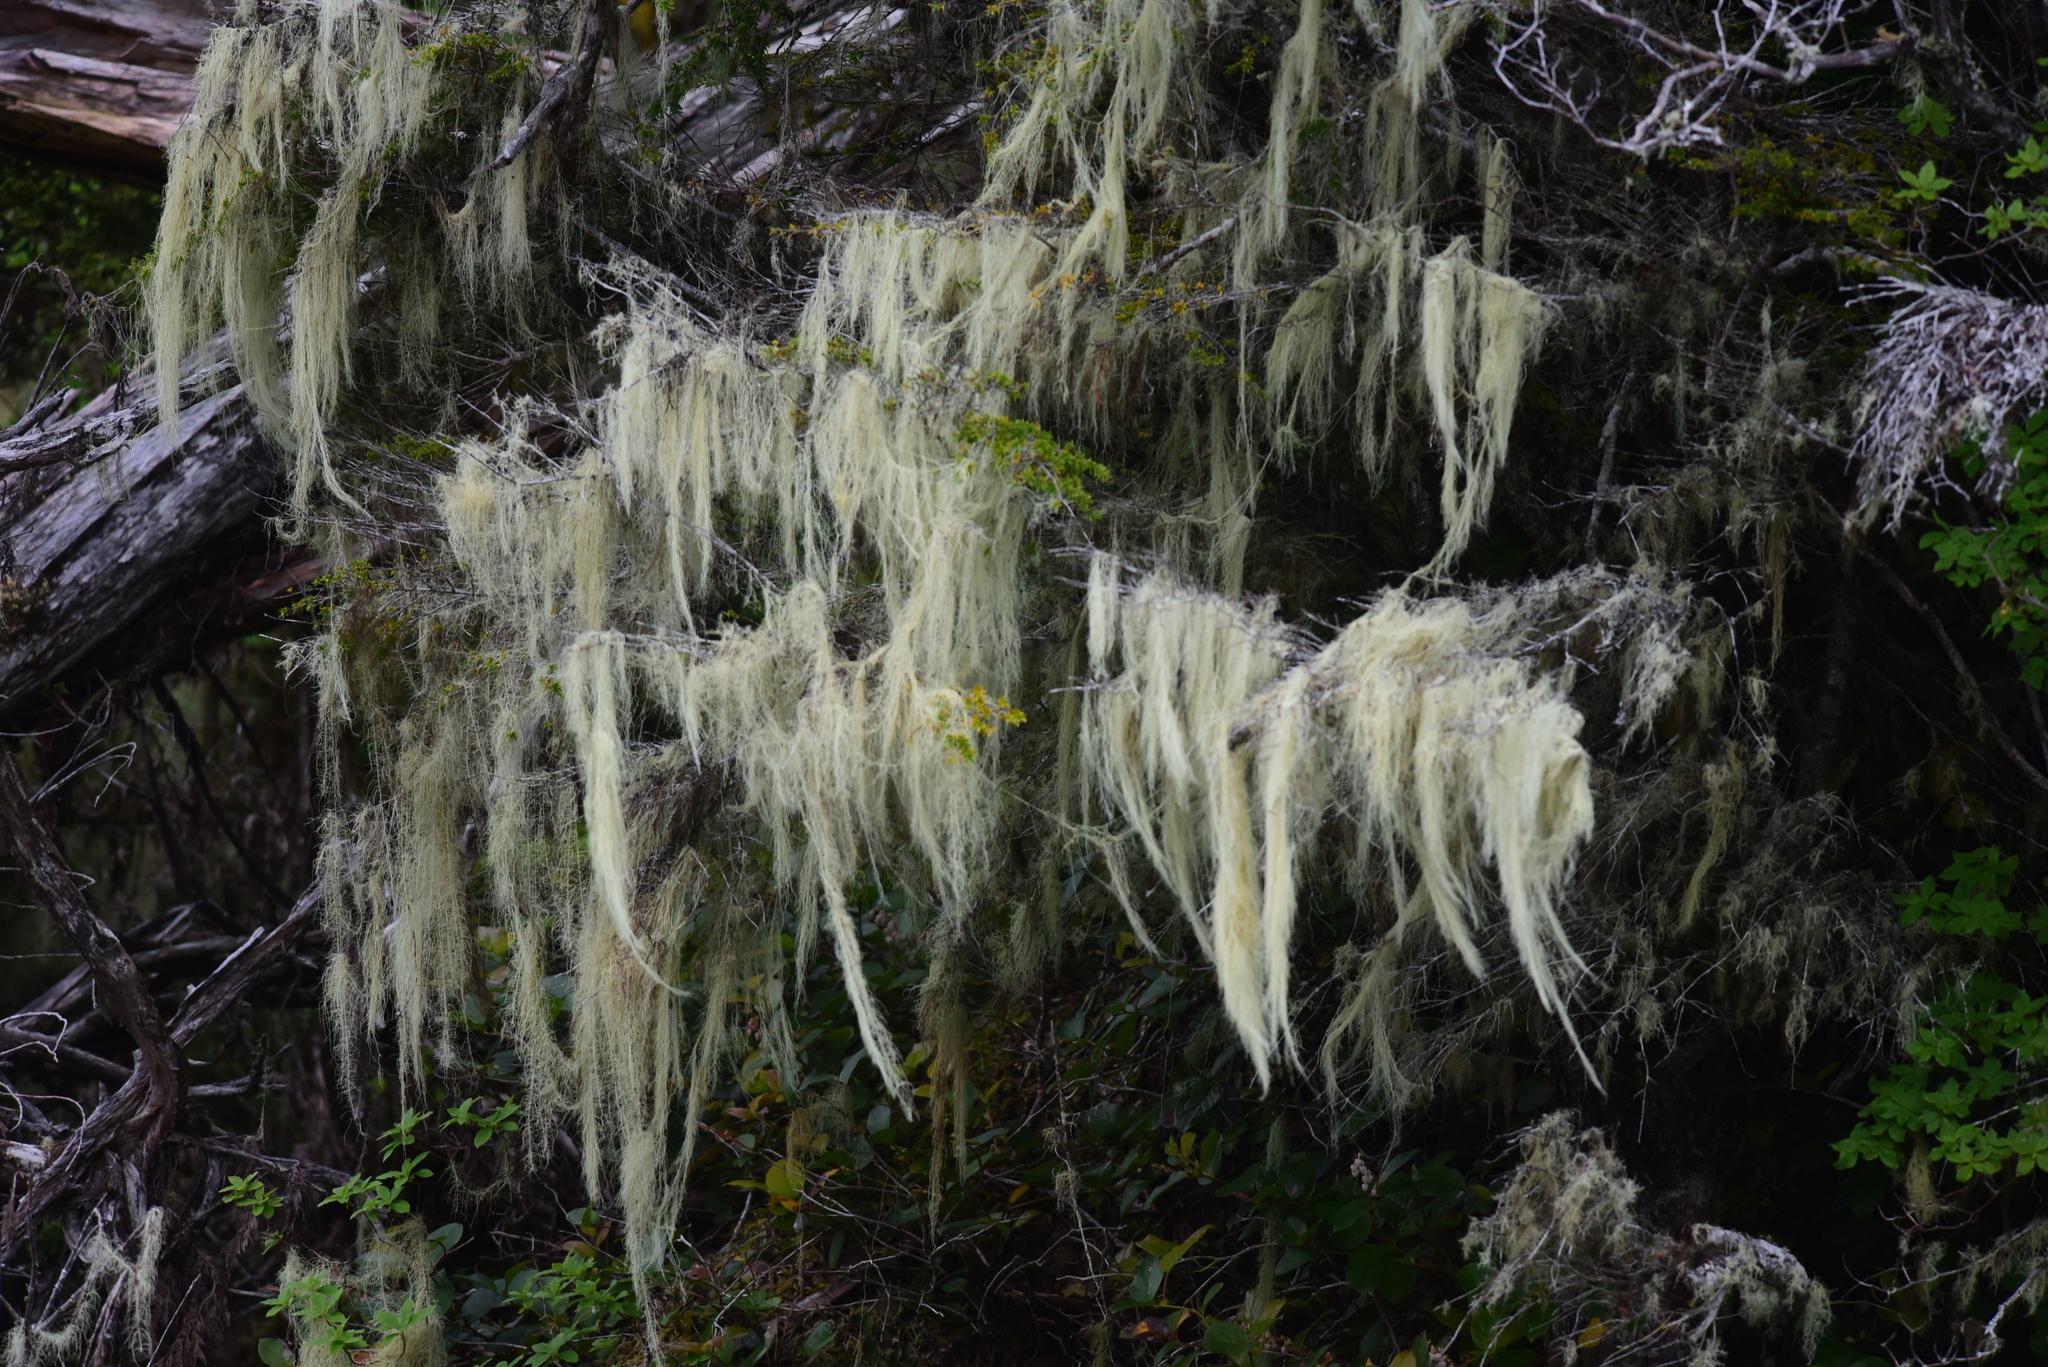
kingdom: Fungi
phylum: Ascomycota
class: Lecanoromycetes
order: Lecanorales
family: Parmeliaceae
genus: Dolichousnea
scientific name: Dolichousnea longissima
